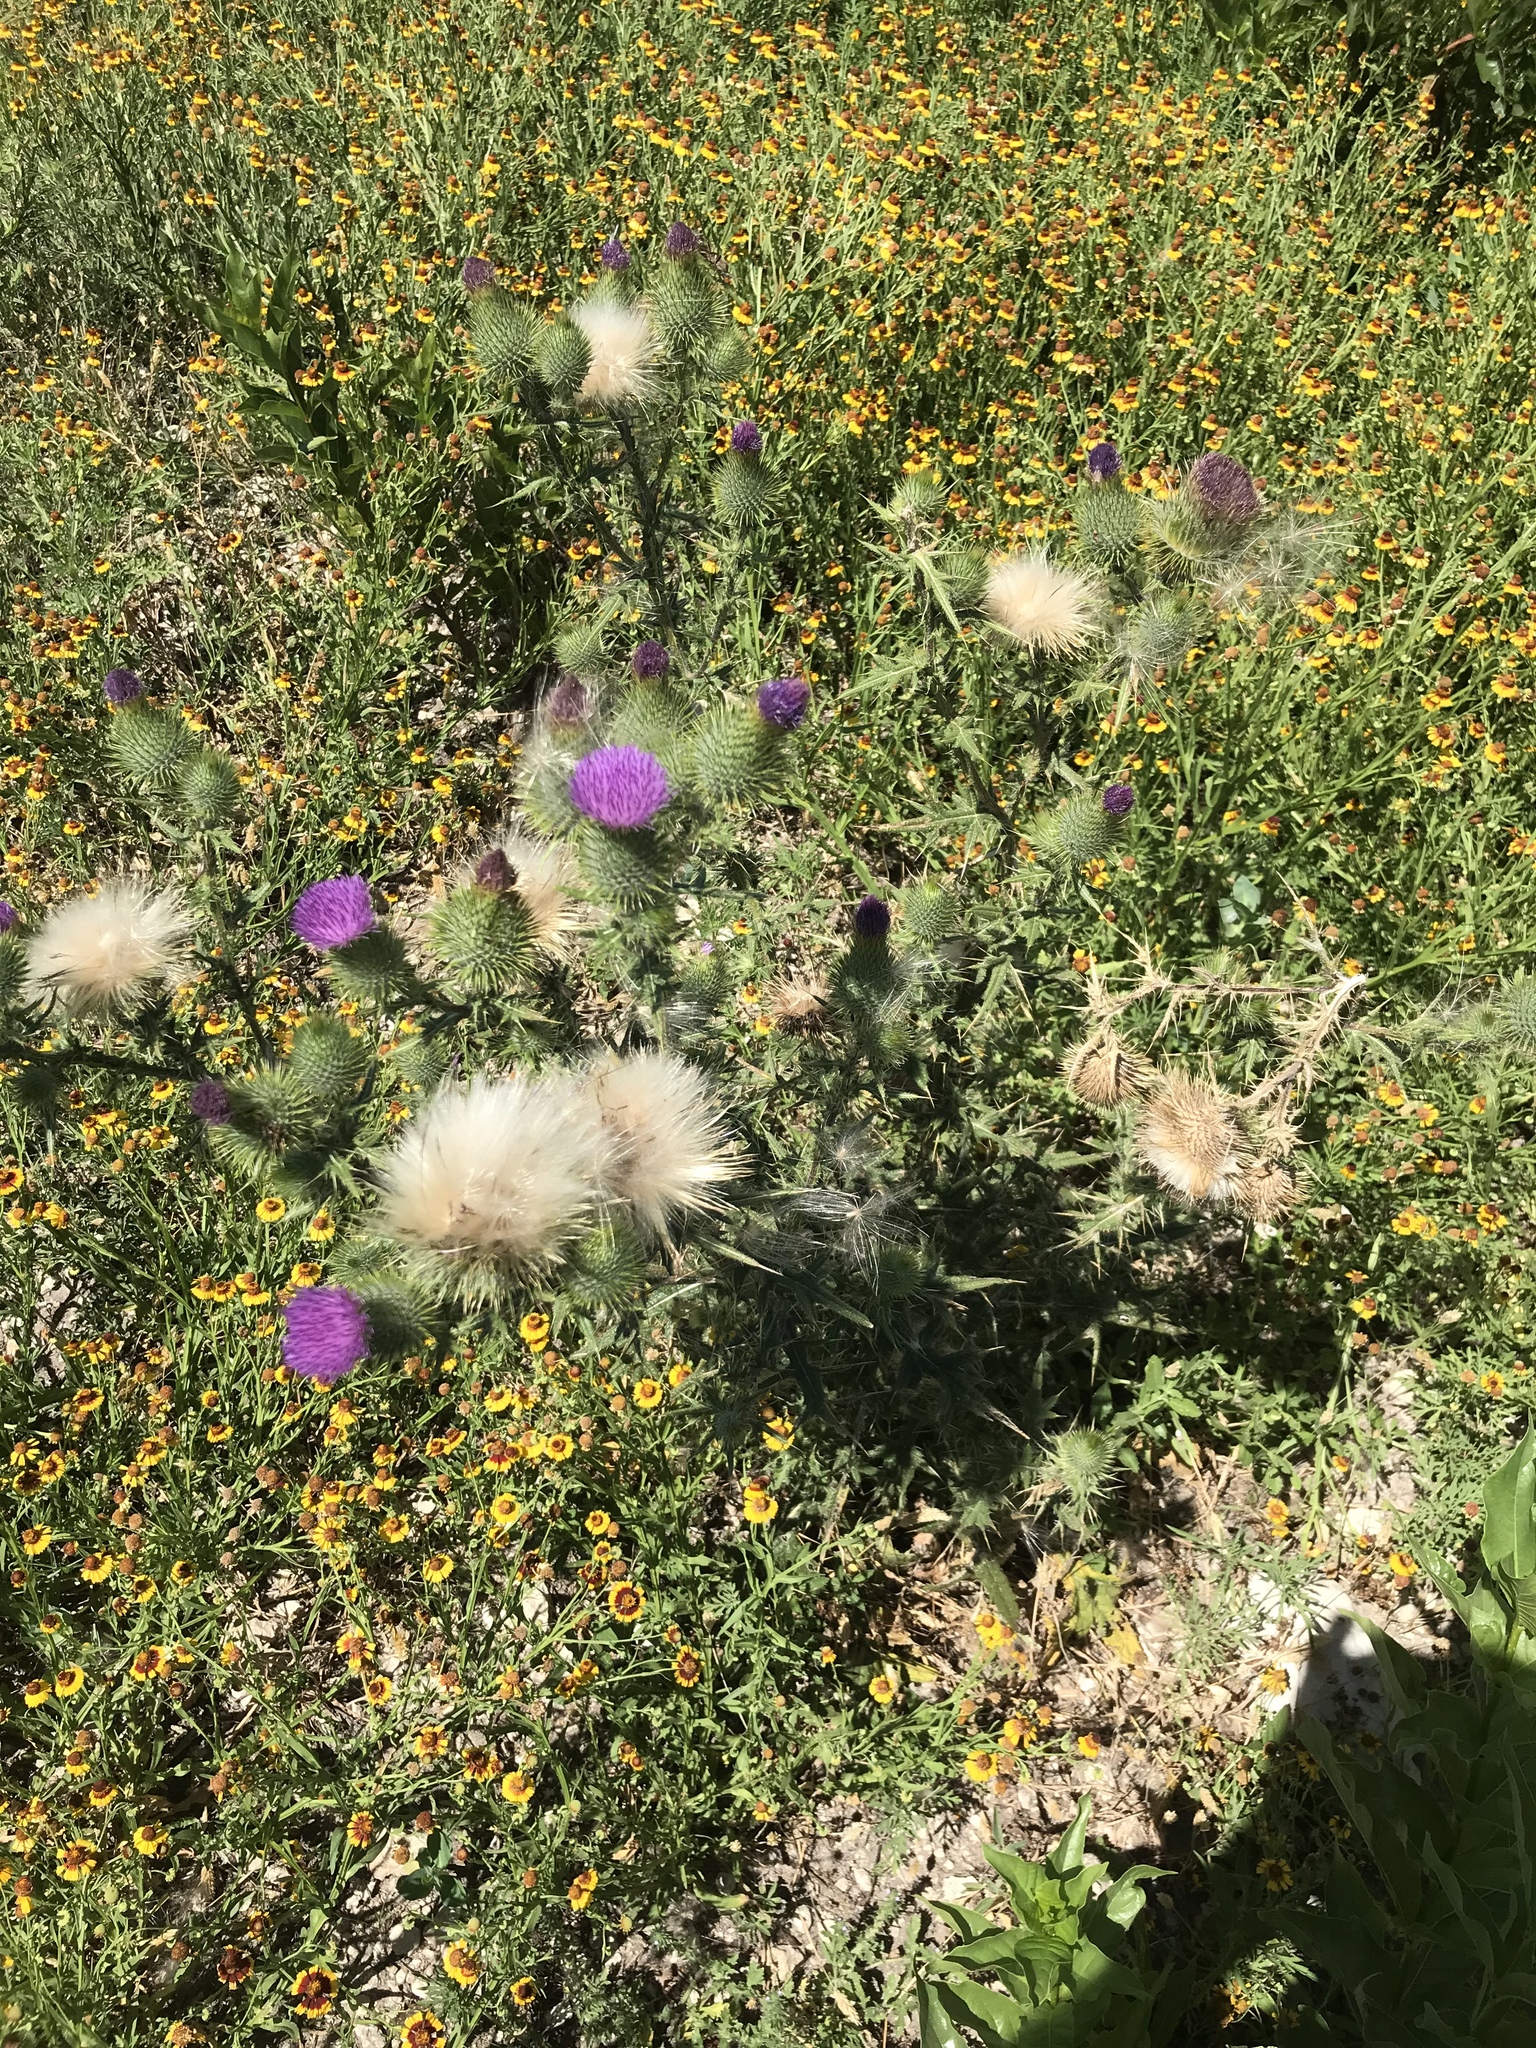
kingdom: Plantae
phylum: Tracheophyta
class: Magnoliopsida
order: Asterales
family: Asteraceae
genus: Cirsium
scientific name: Cirsium vulgare
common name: Bull thistle
